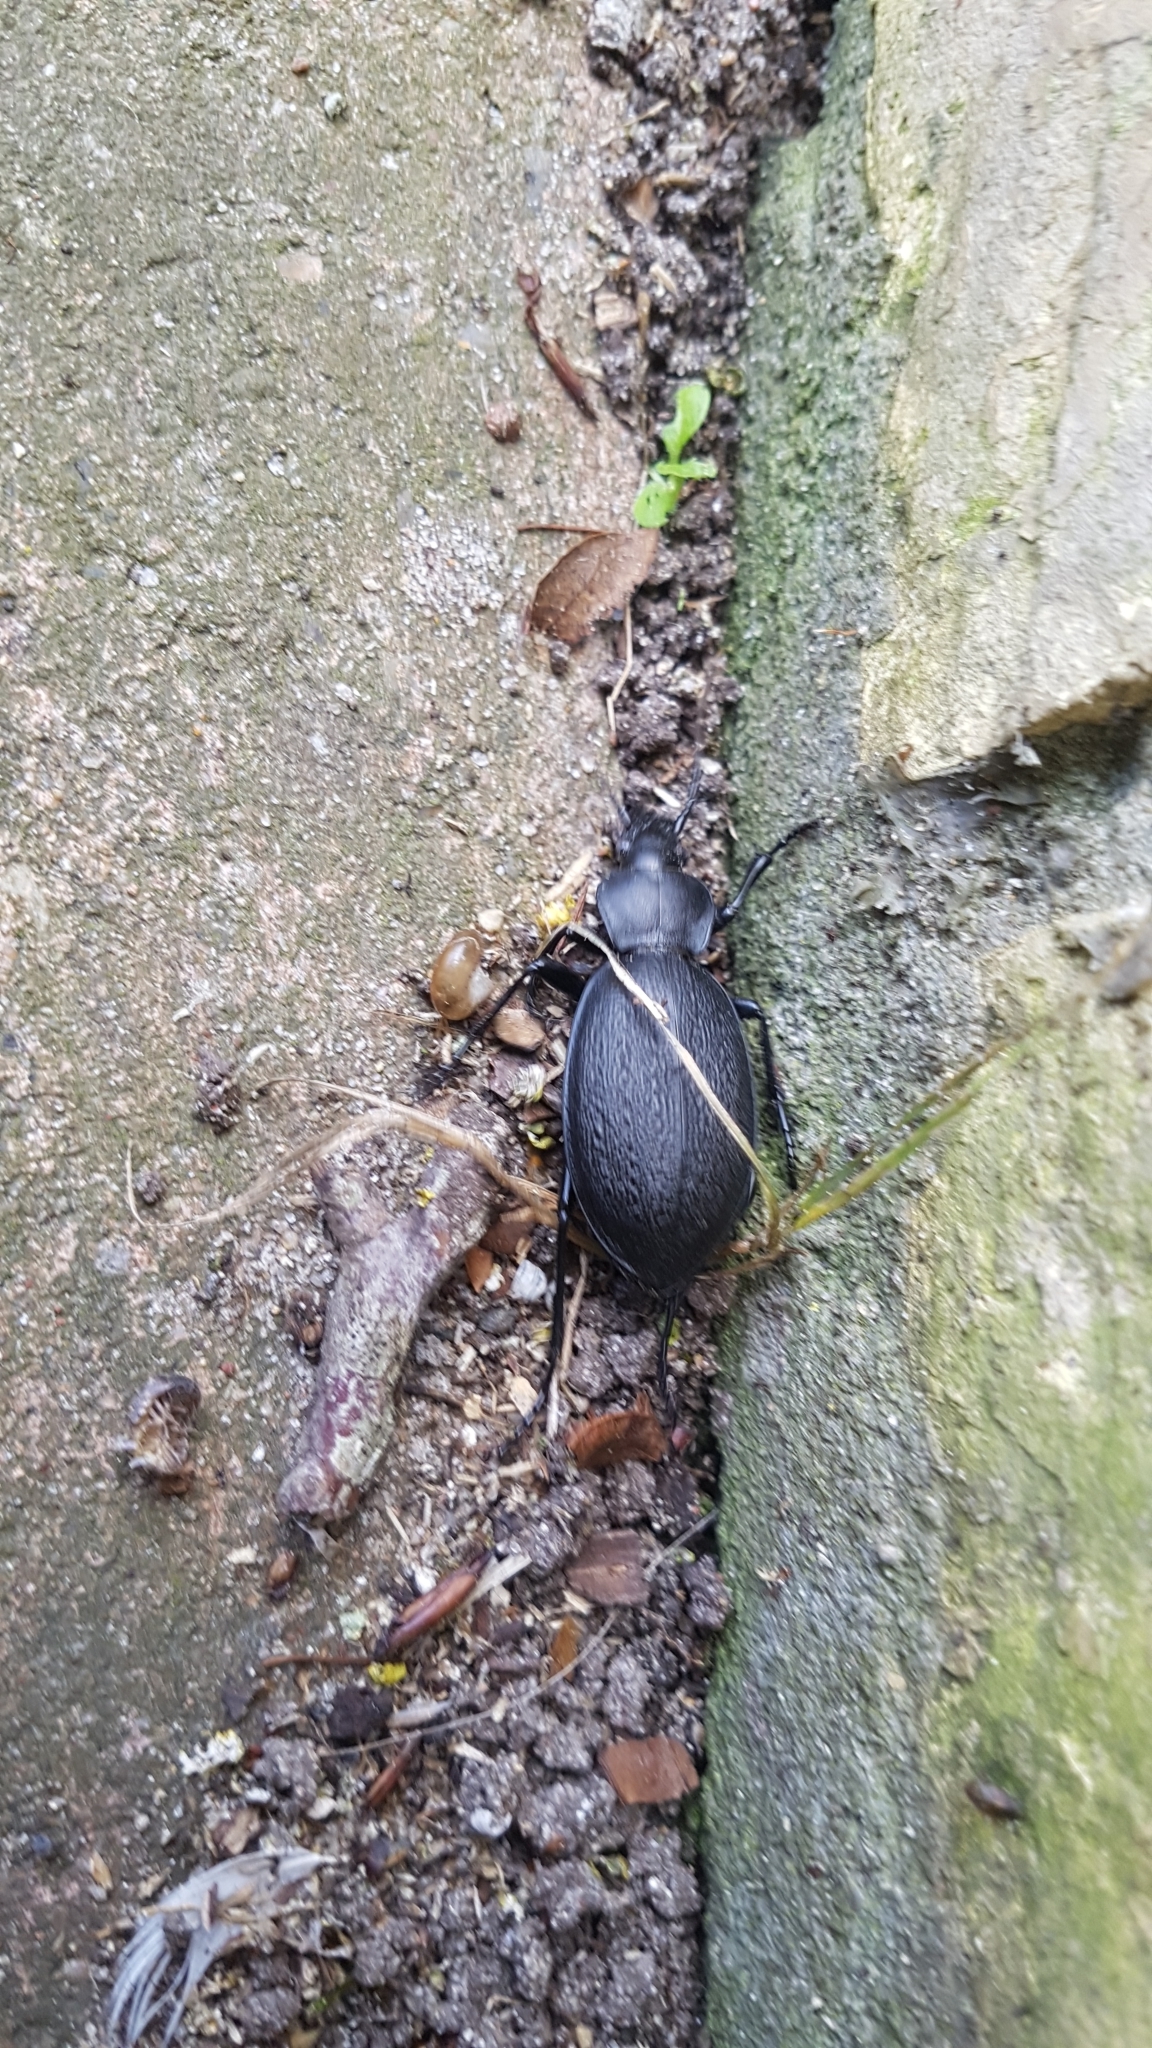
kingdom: Animalia
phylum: Arthropoda
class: Insecta
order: Coleoptera
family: Carabidae
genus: Carabus
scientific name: Carabus coriaceus
